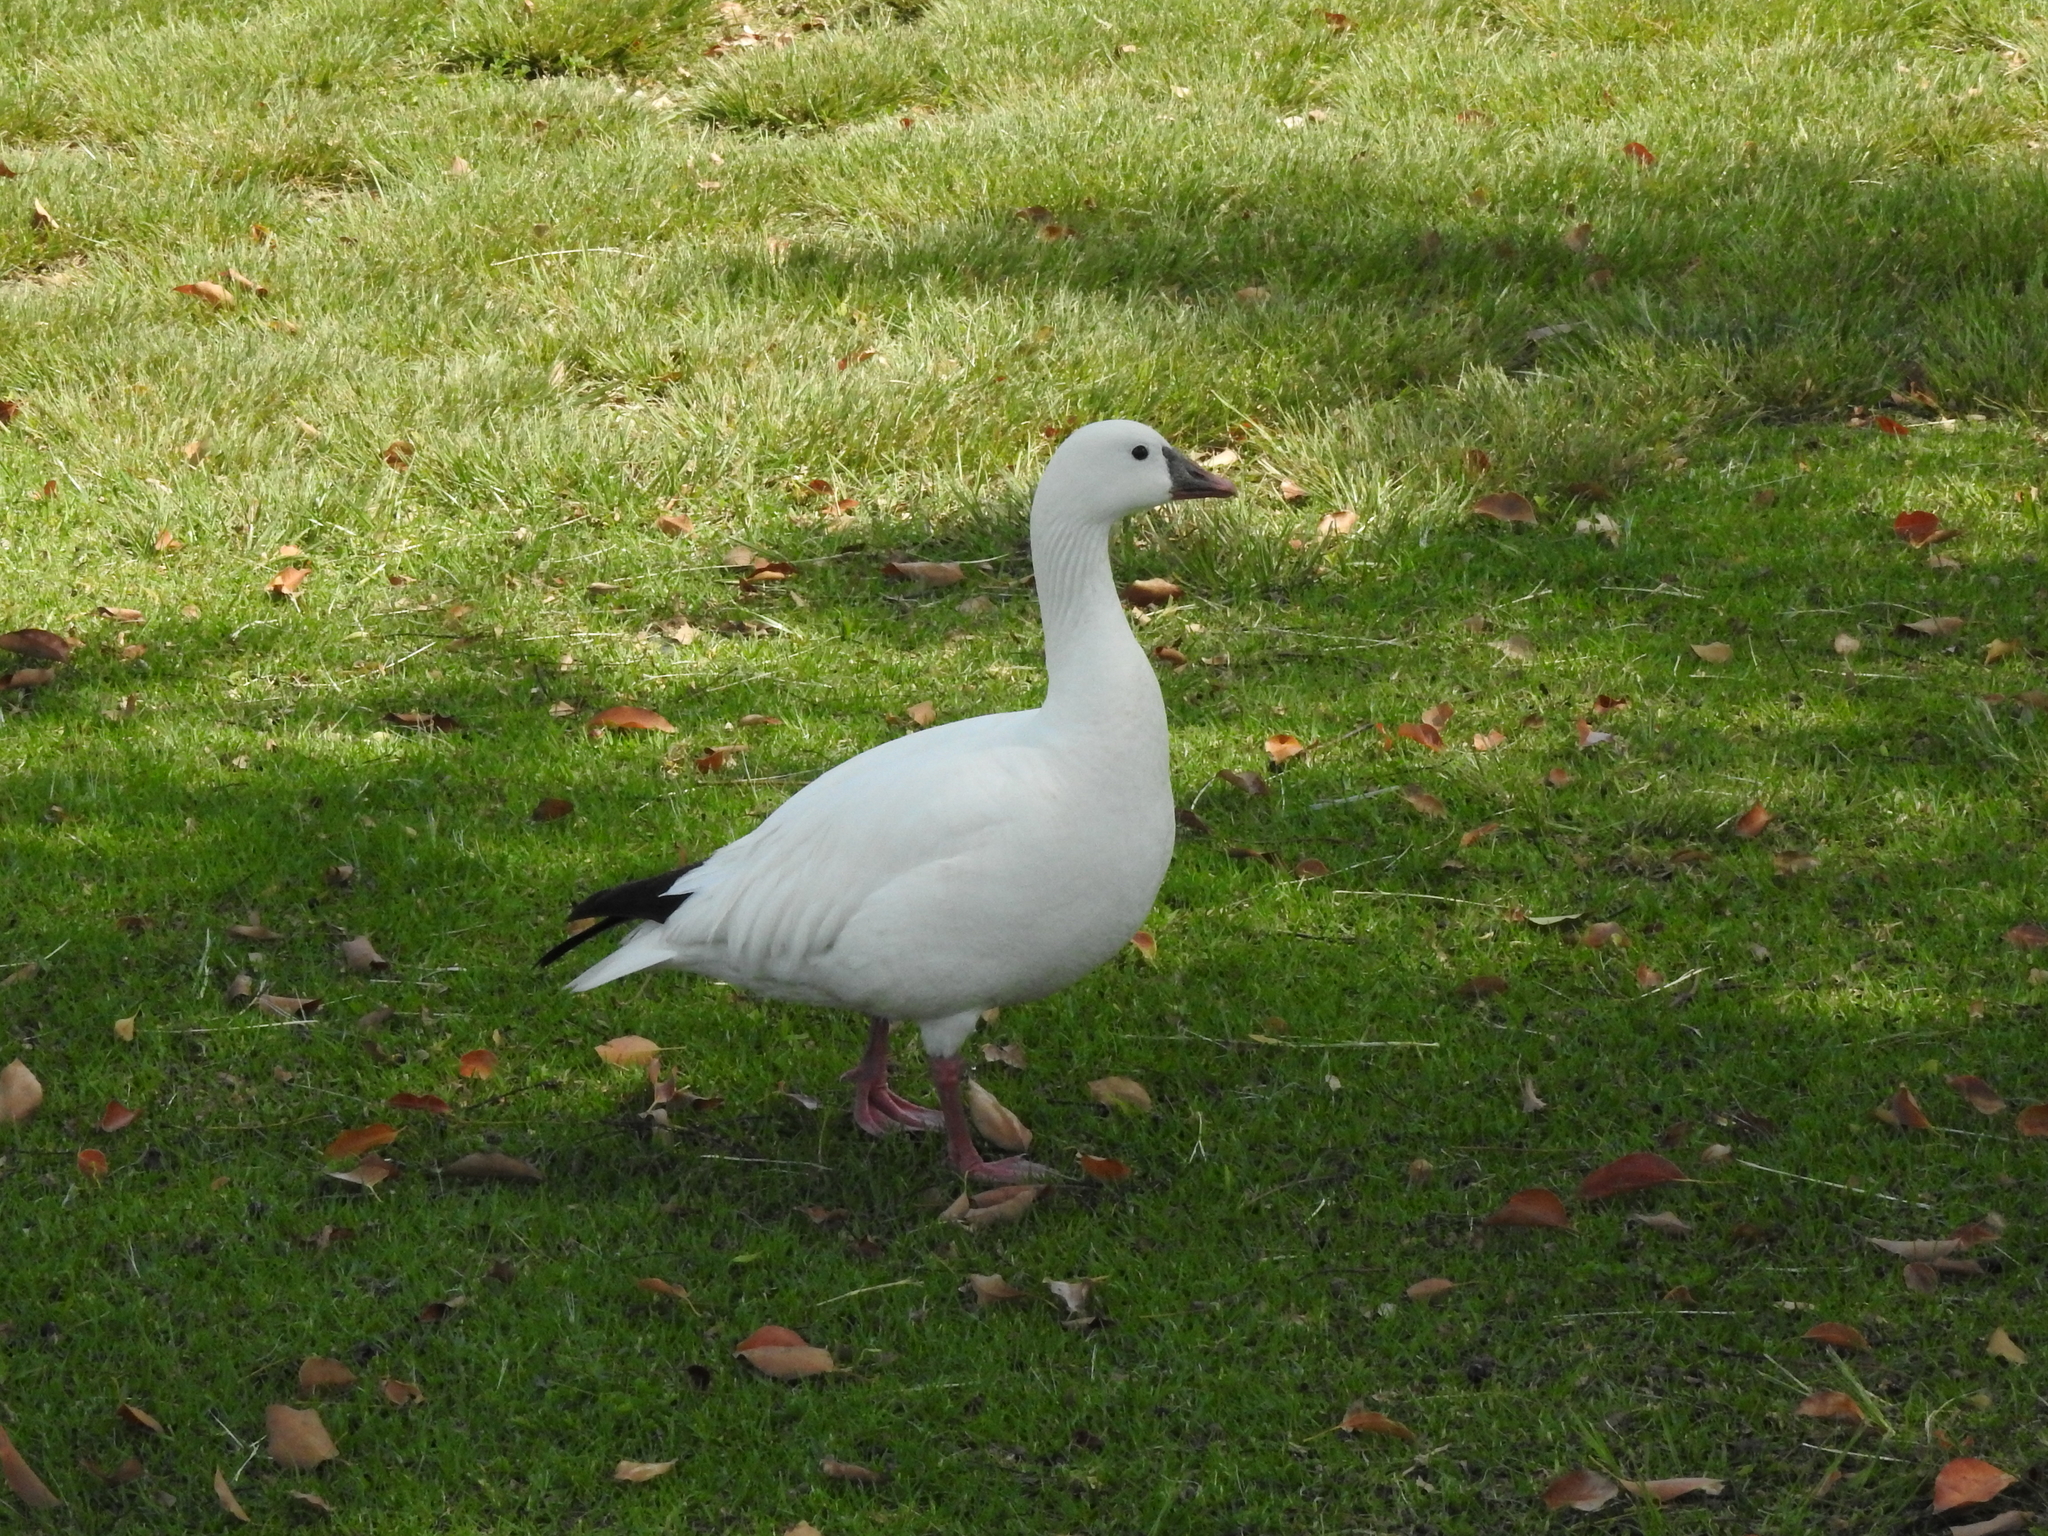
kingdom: Animalia
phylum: Chordata
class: Aves
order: Anseriformes
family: Anatidae
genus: Anser
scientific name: Anser rossii
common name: Ross's goose
